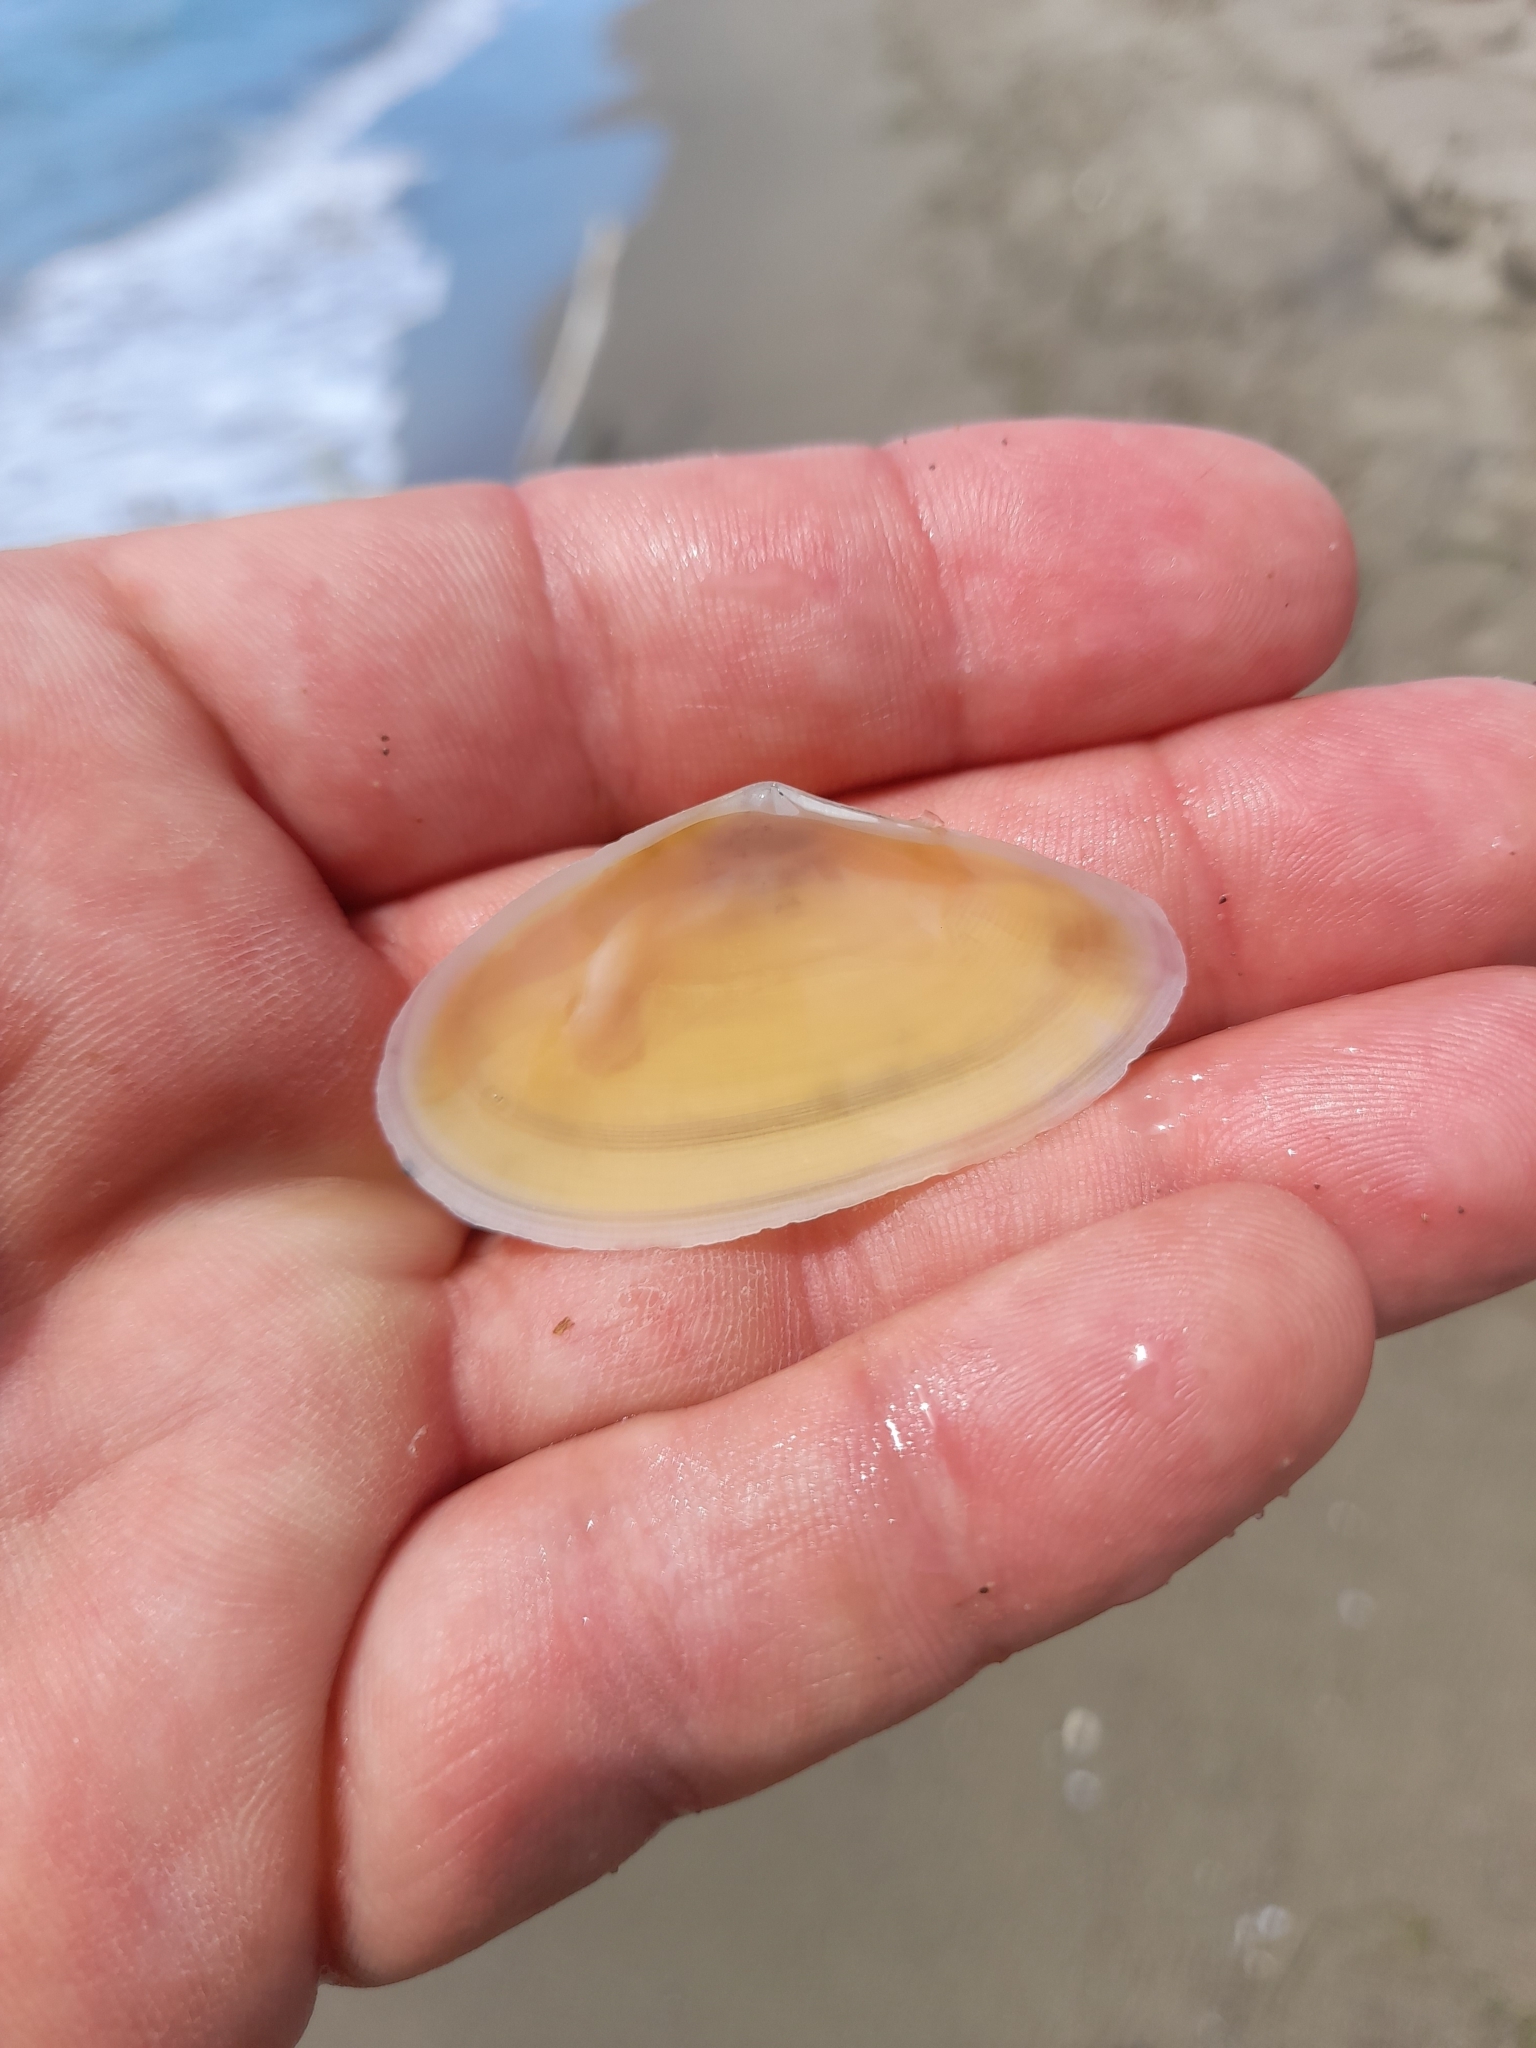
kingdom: Animalia
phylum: Mollusca
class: Bivalvia
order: Cardiida
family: Tellinidae
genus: Peronidia
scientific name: Peronidia albicans
